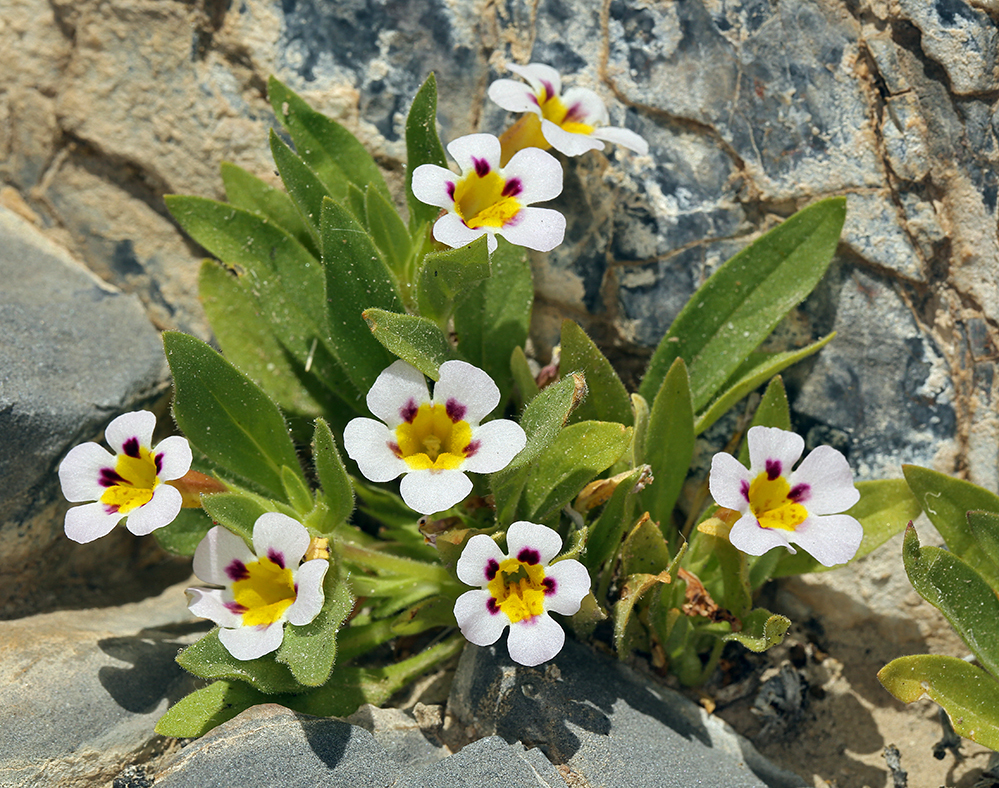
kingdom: Plantae
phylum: Tracheophyta
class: Magnoliopsida
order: Lamiales
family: Phrymaceae
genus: Diplacus
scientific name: Diplacus rupicola
